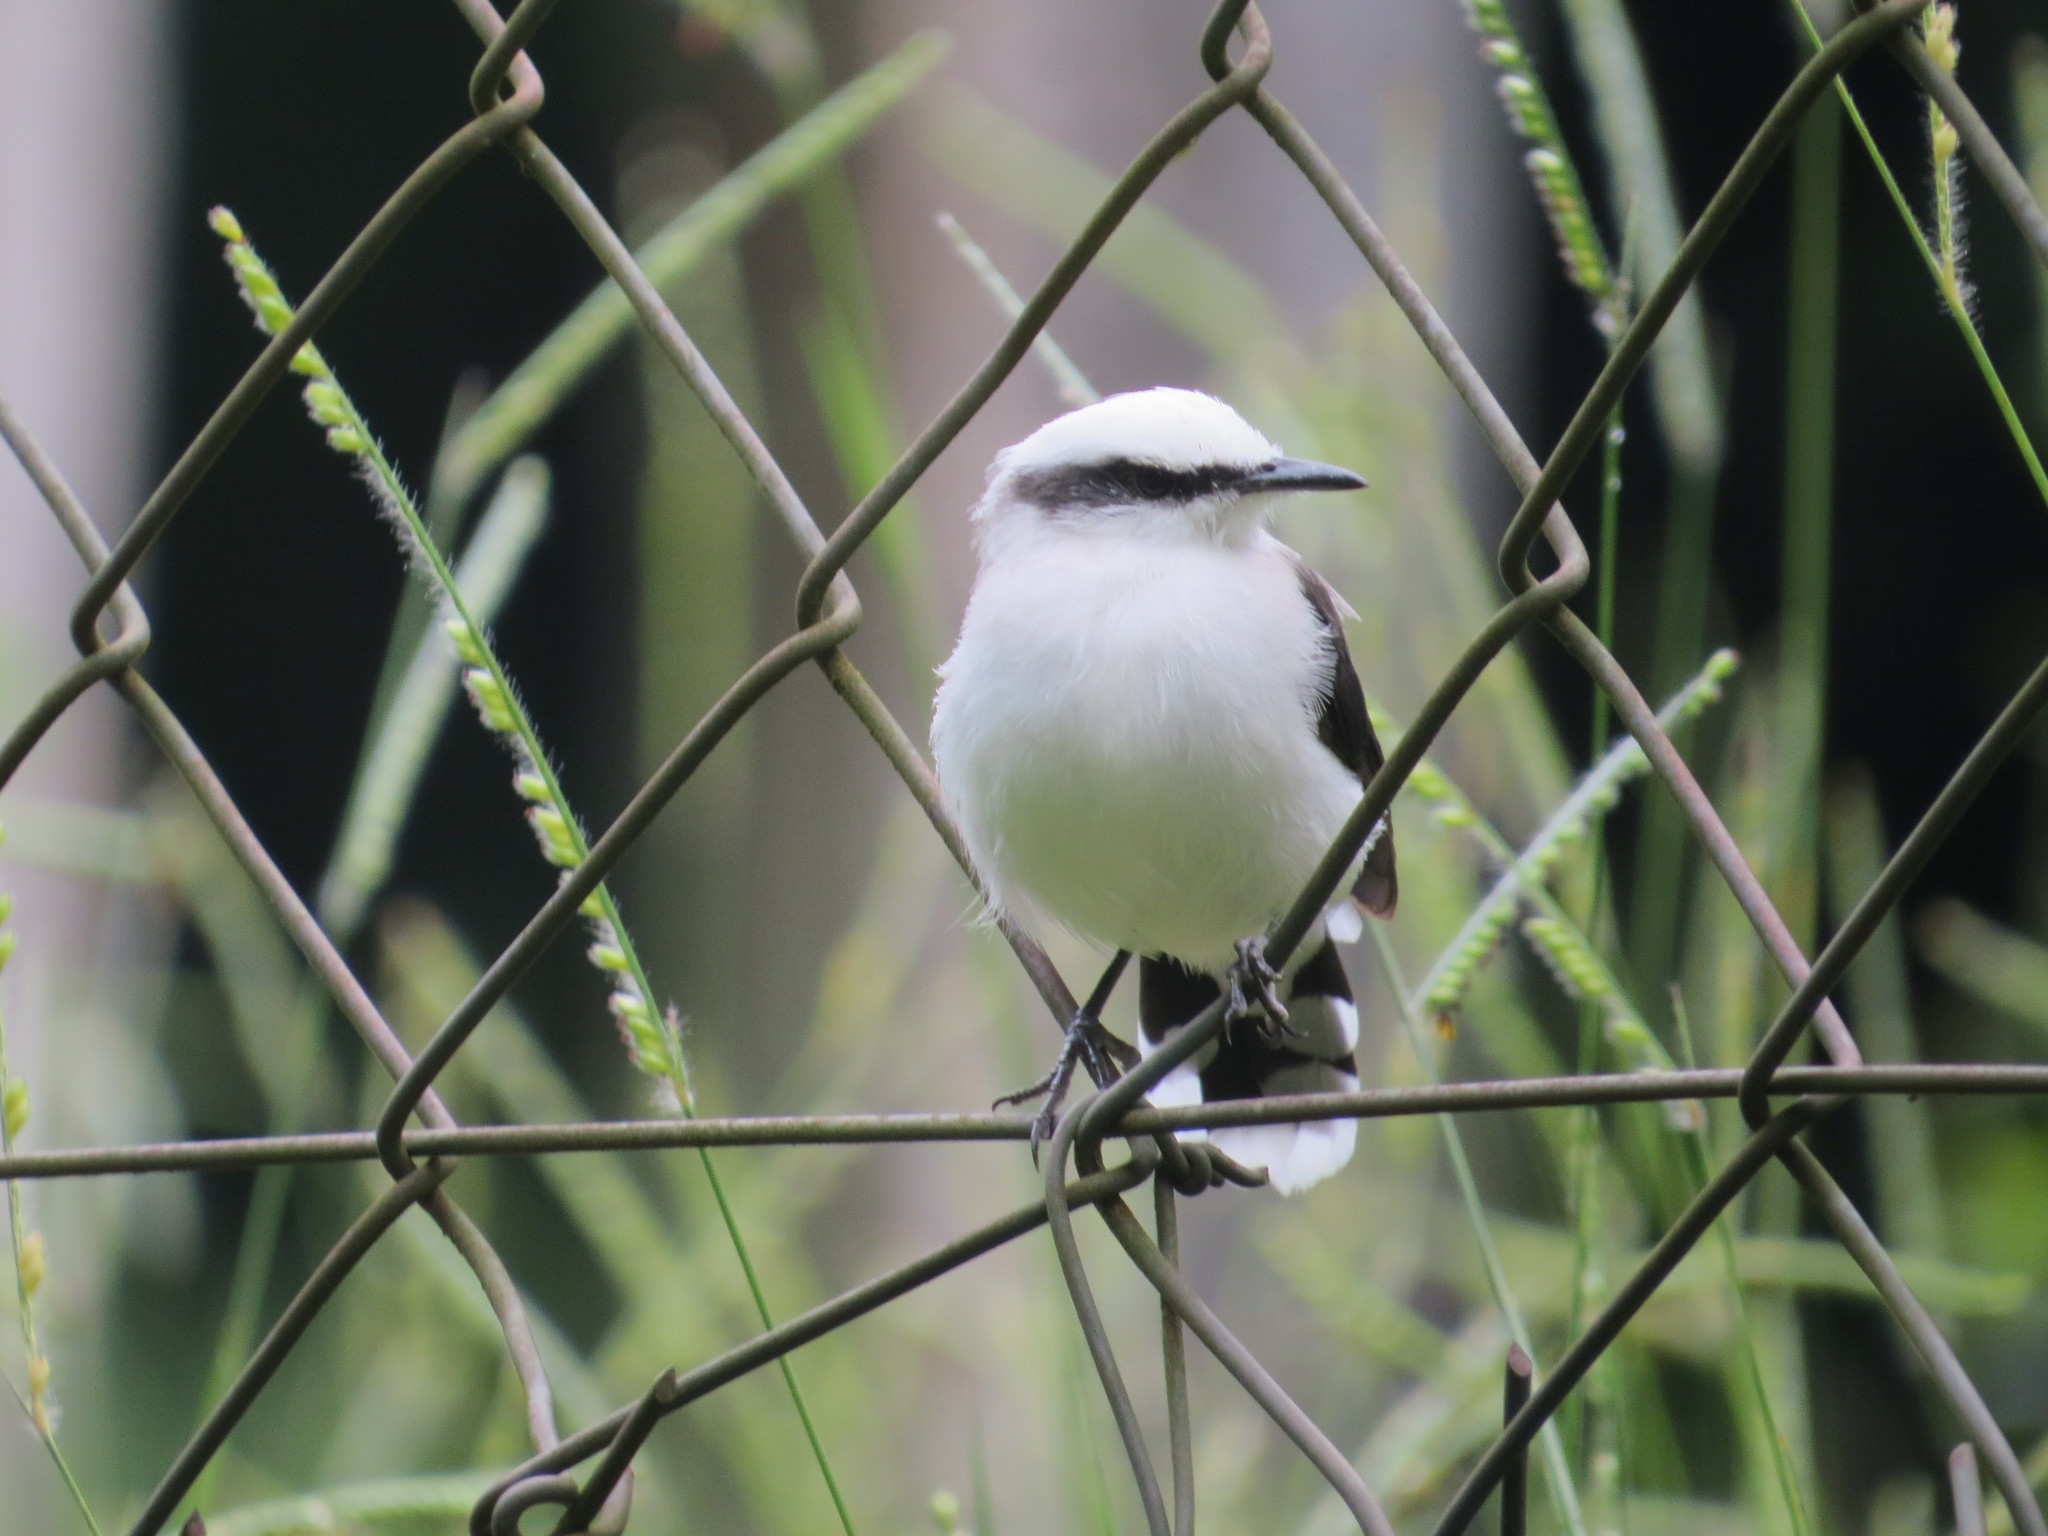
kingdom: Animalia
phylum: Chordata
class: Aves
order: Passeriformes
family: Tyrannidae
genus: Fluvicola
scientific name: Fluvicola nengeta
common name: Masked water tyrant
